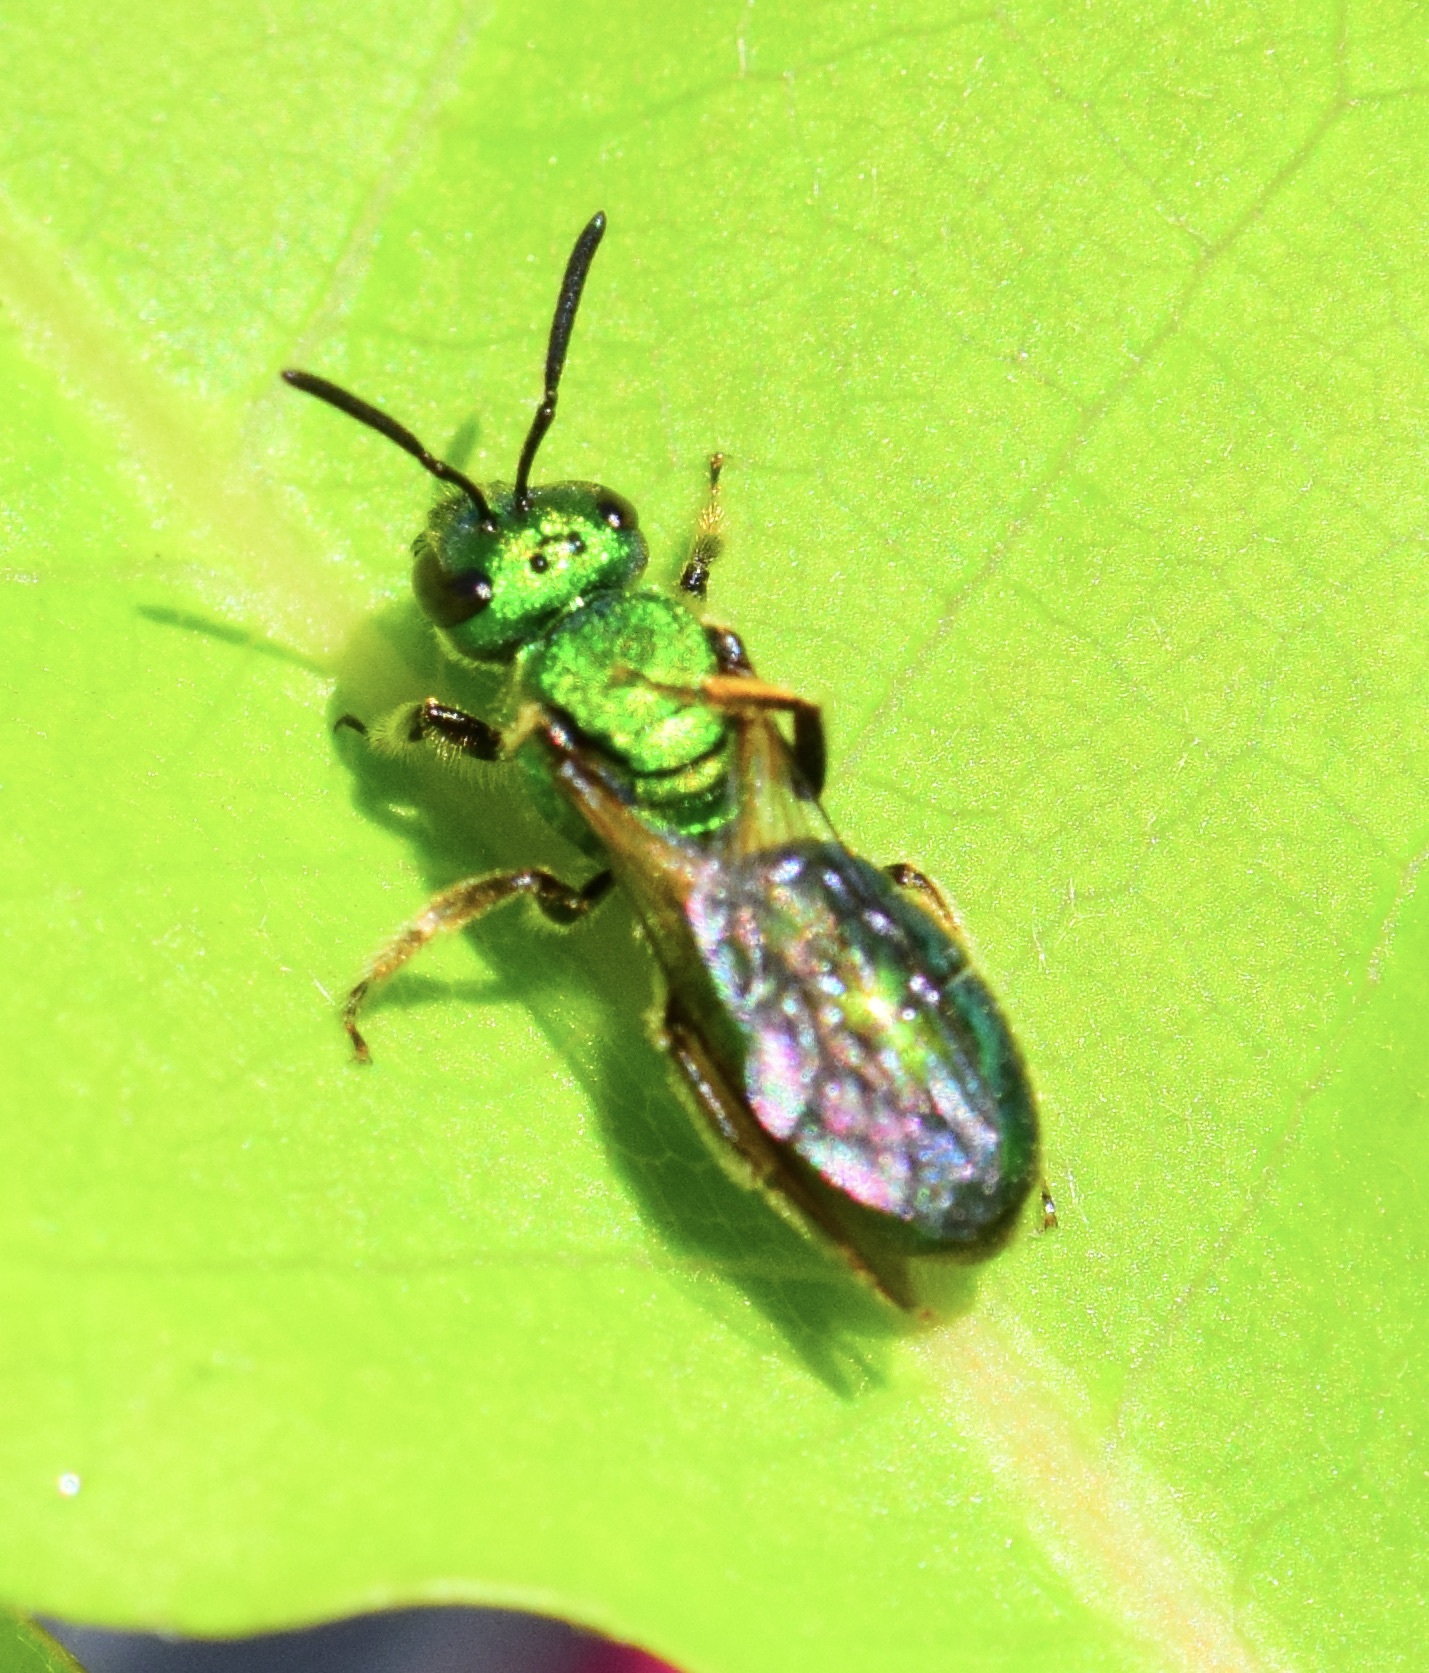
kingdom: Animalia
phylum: Arthropoda
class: Insecta
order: Hymenoptera
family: Halictidae
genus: Augochlora
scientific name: Augochlora pura
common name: Pure green sweat bee
